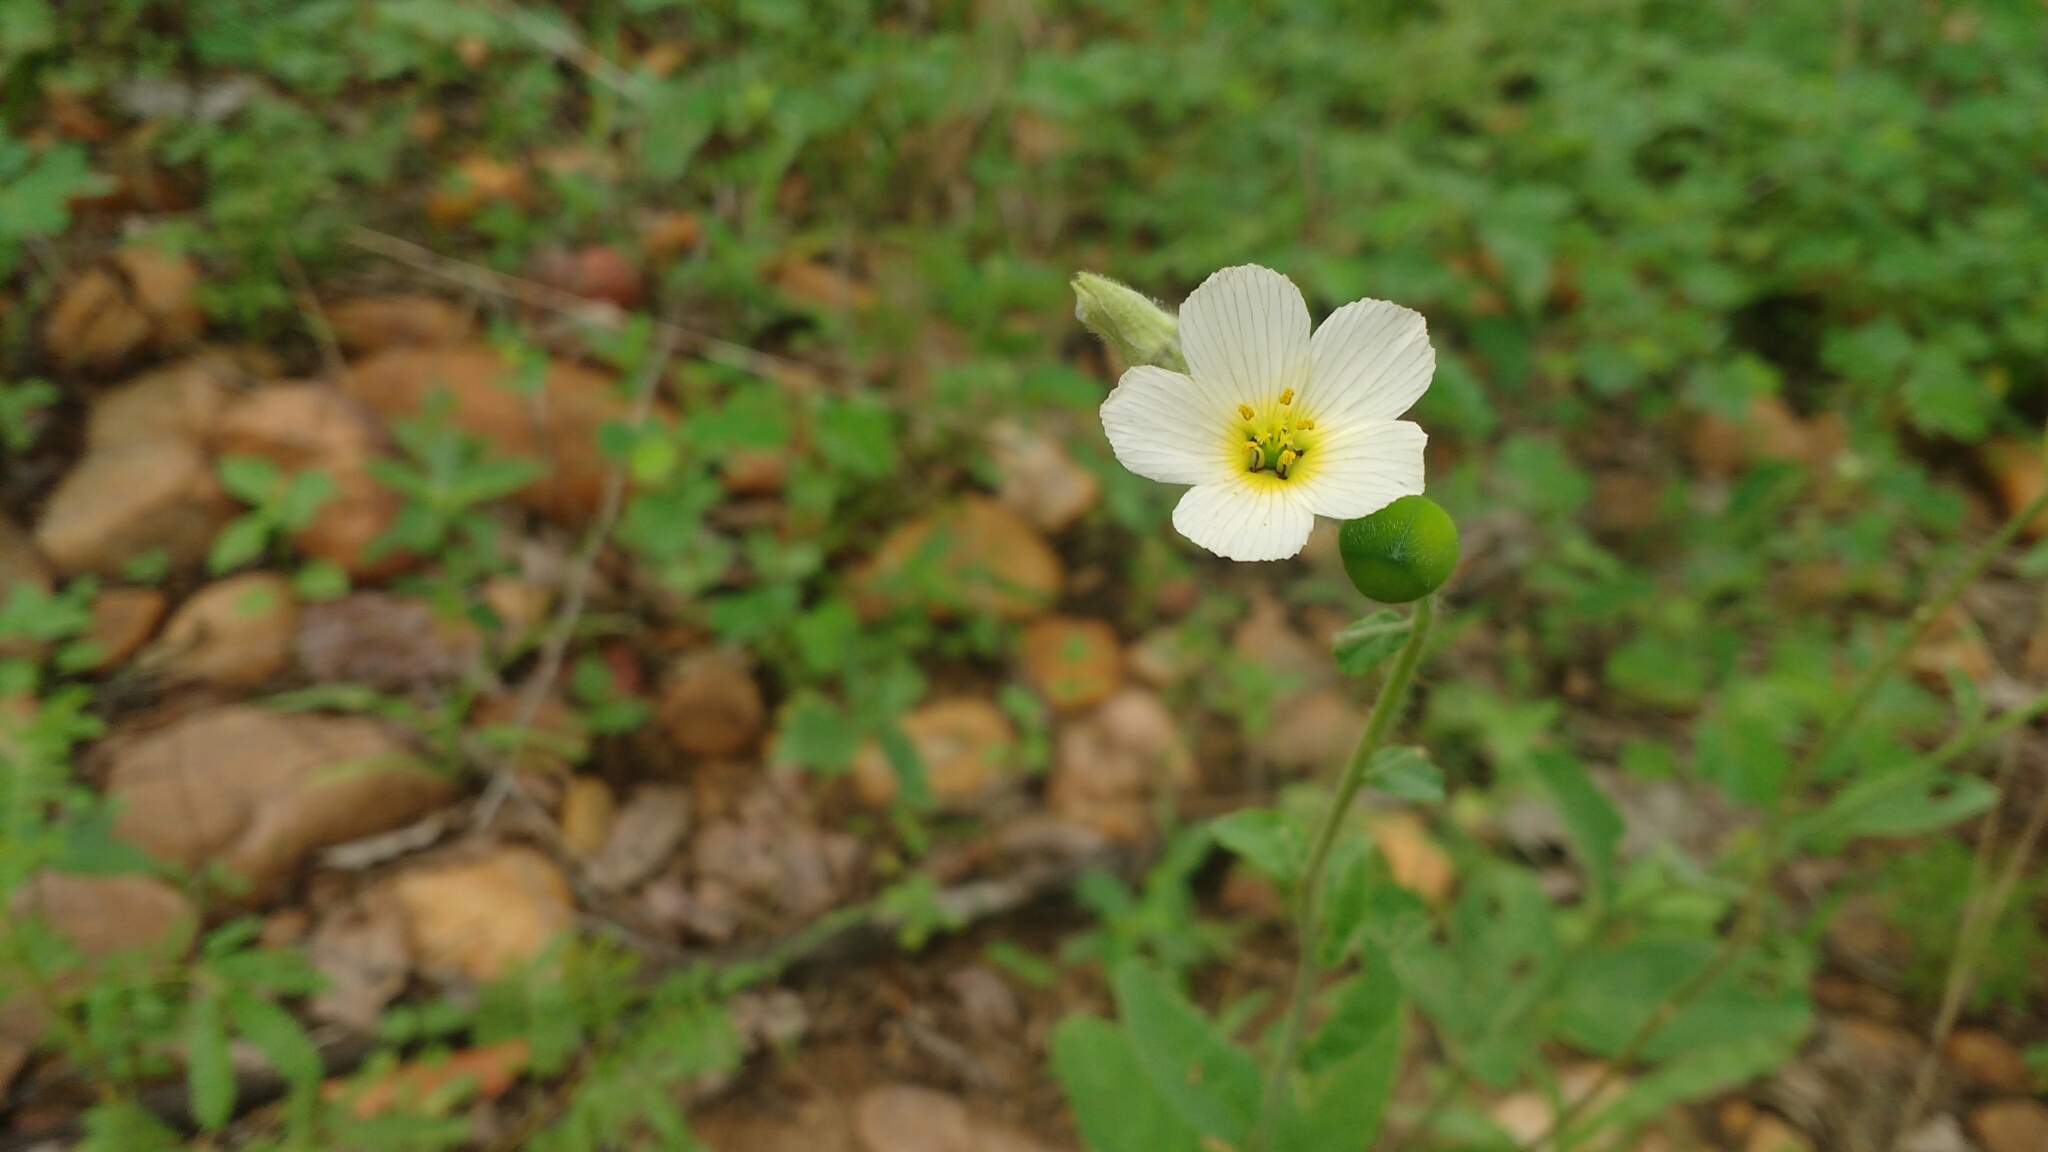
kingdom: Plantae
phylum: Tracheophyta
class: Magnoliopsida
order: Malpighiales
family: Turneraceae
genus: Piriqueta
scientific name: Piriqueta racemosa
